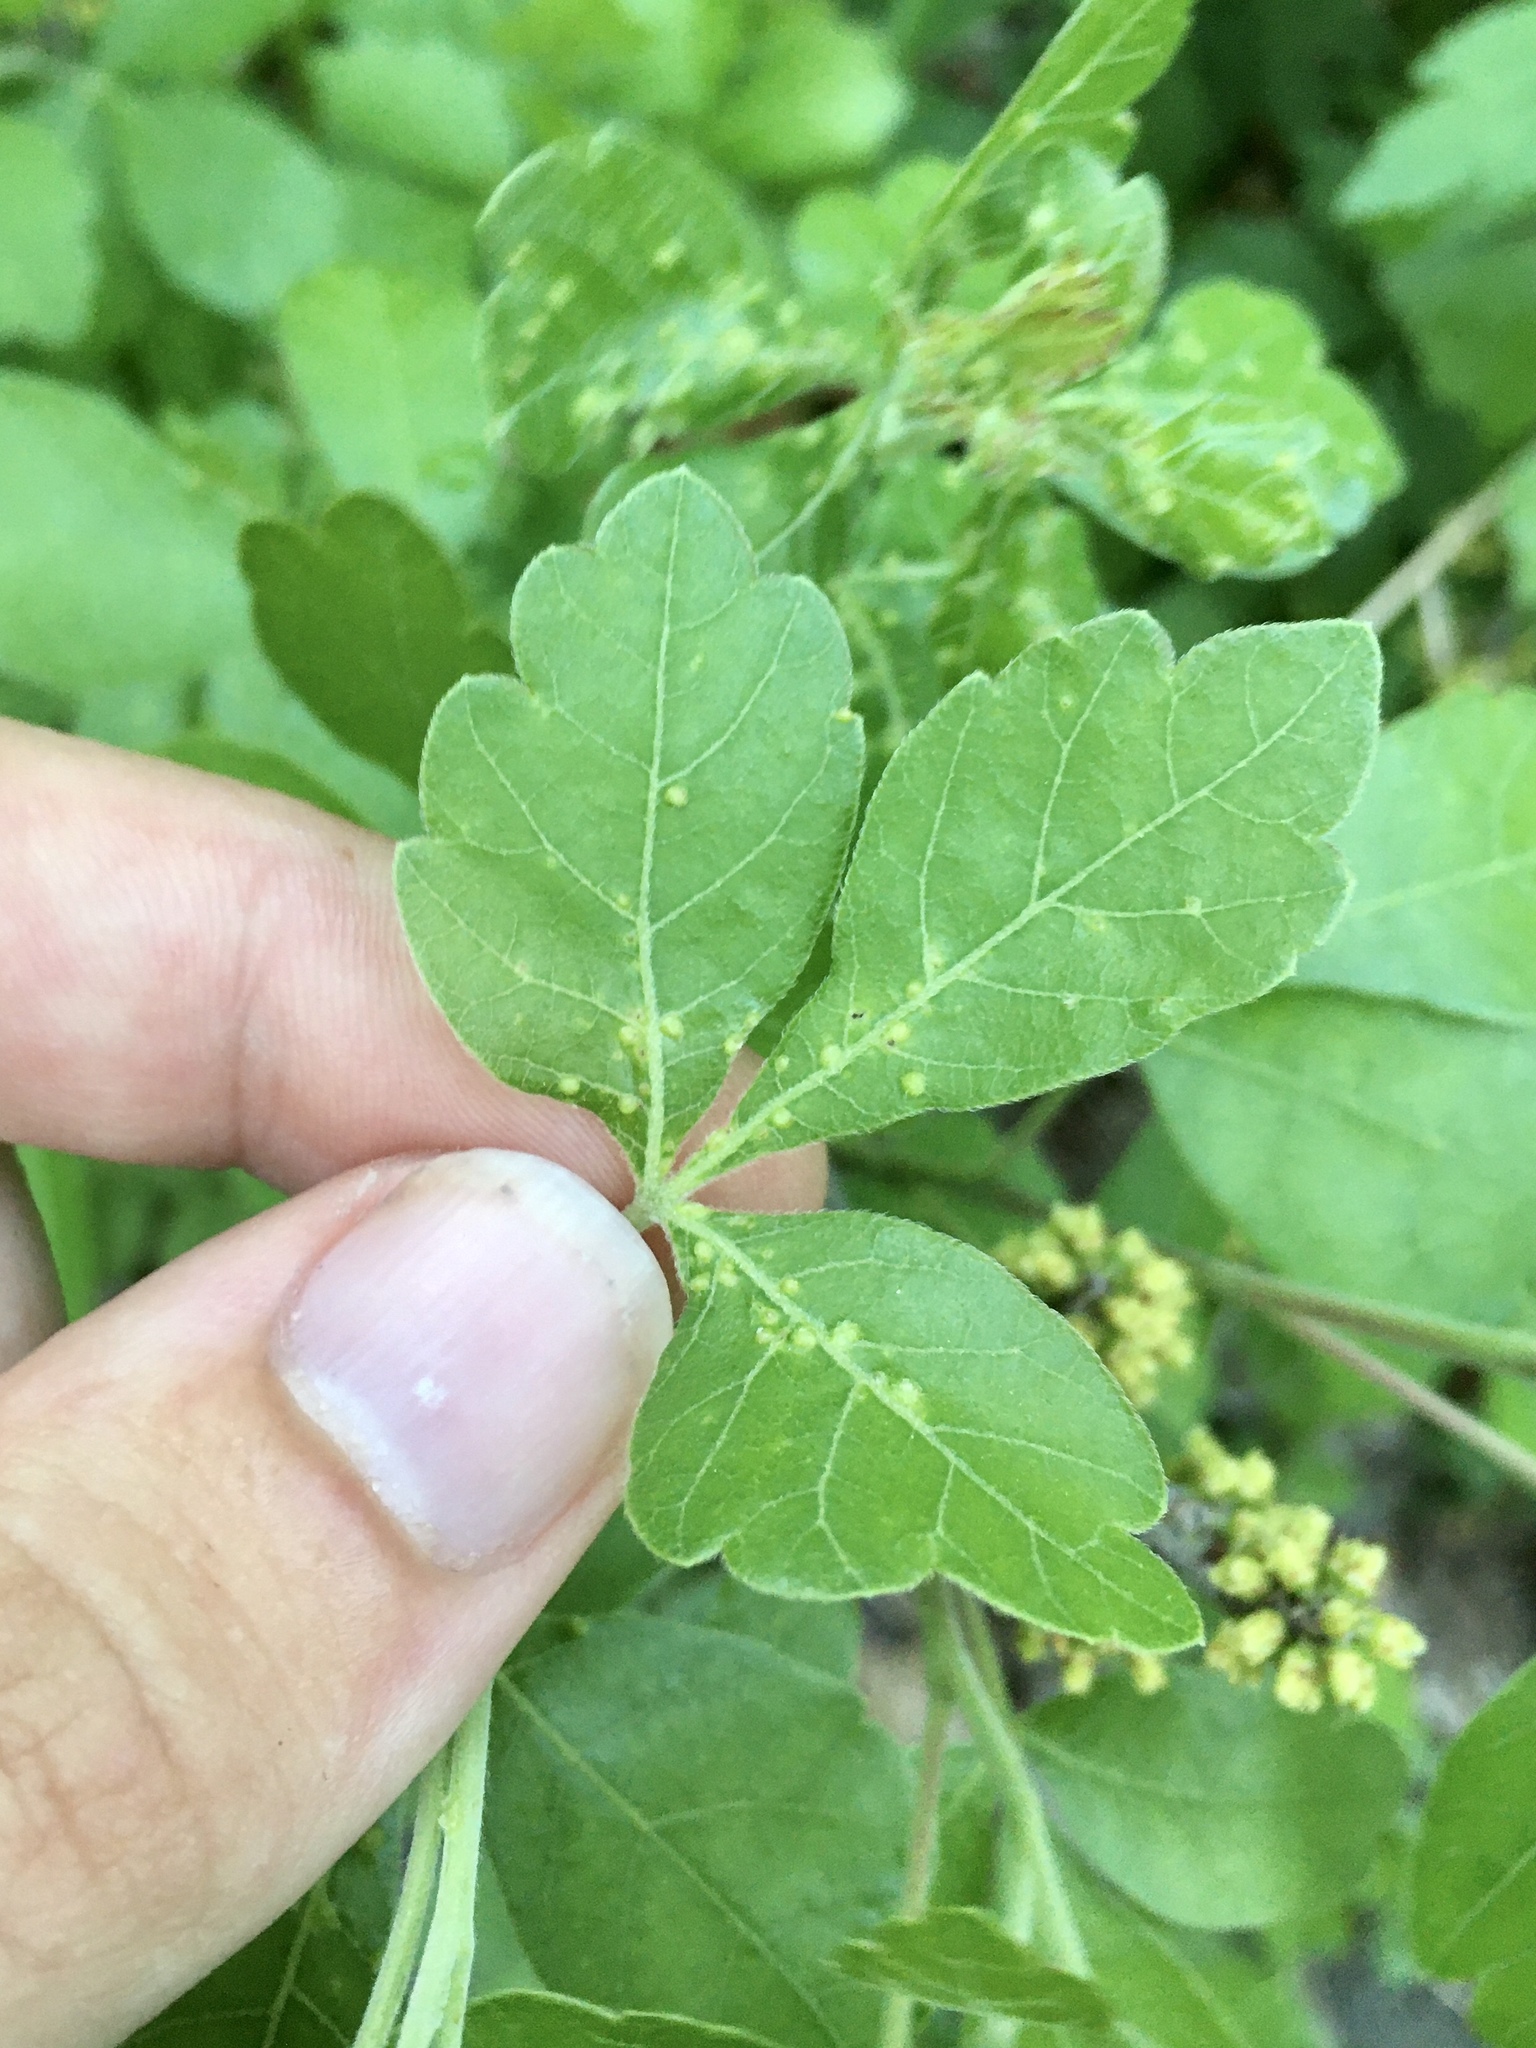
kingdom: Animalia
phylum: Arthropoda
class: Arachnida
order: Trombidiformes
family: Eriophyidae
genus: Aculops
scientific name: Aculops
